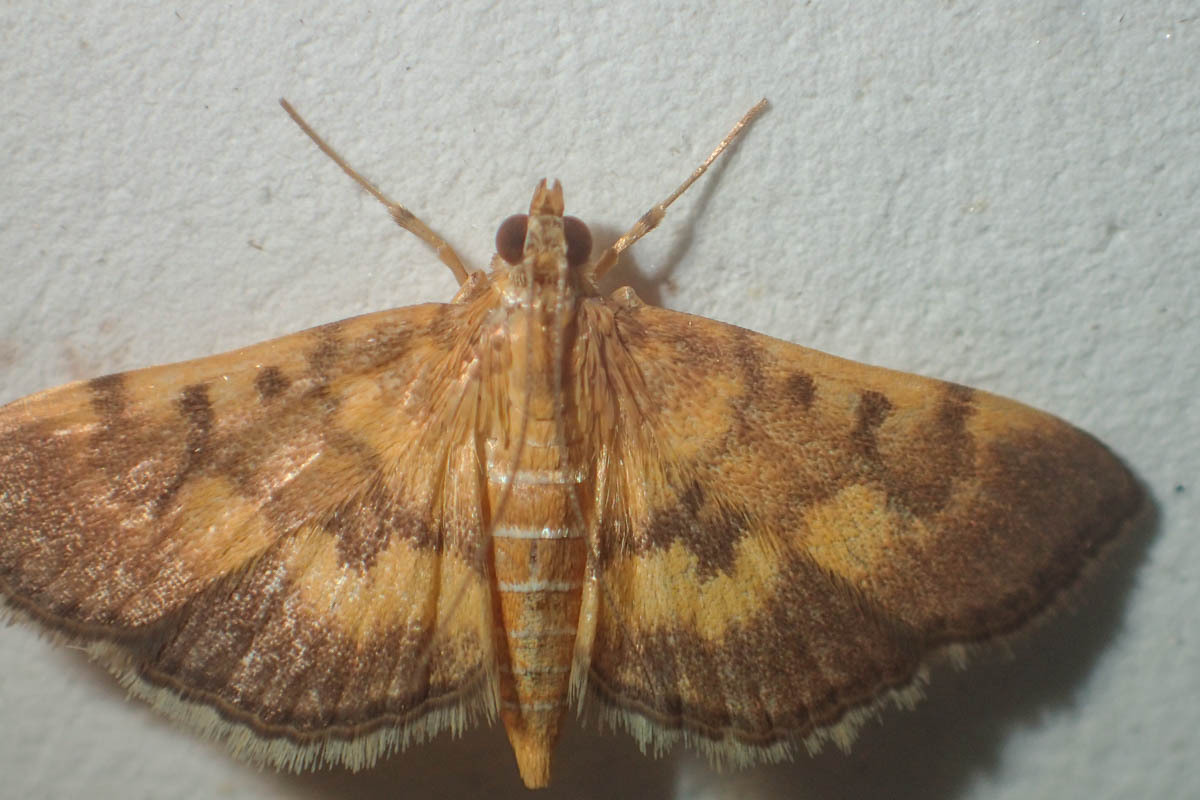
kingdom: Animalia
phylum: Arthropoda
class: Insecta
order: Lepidoptera
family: Crambidae
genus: Omiodes
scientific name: Omiodes diemenalis
